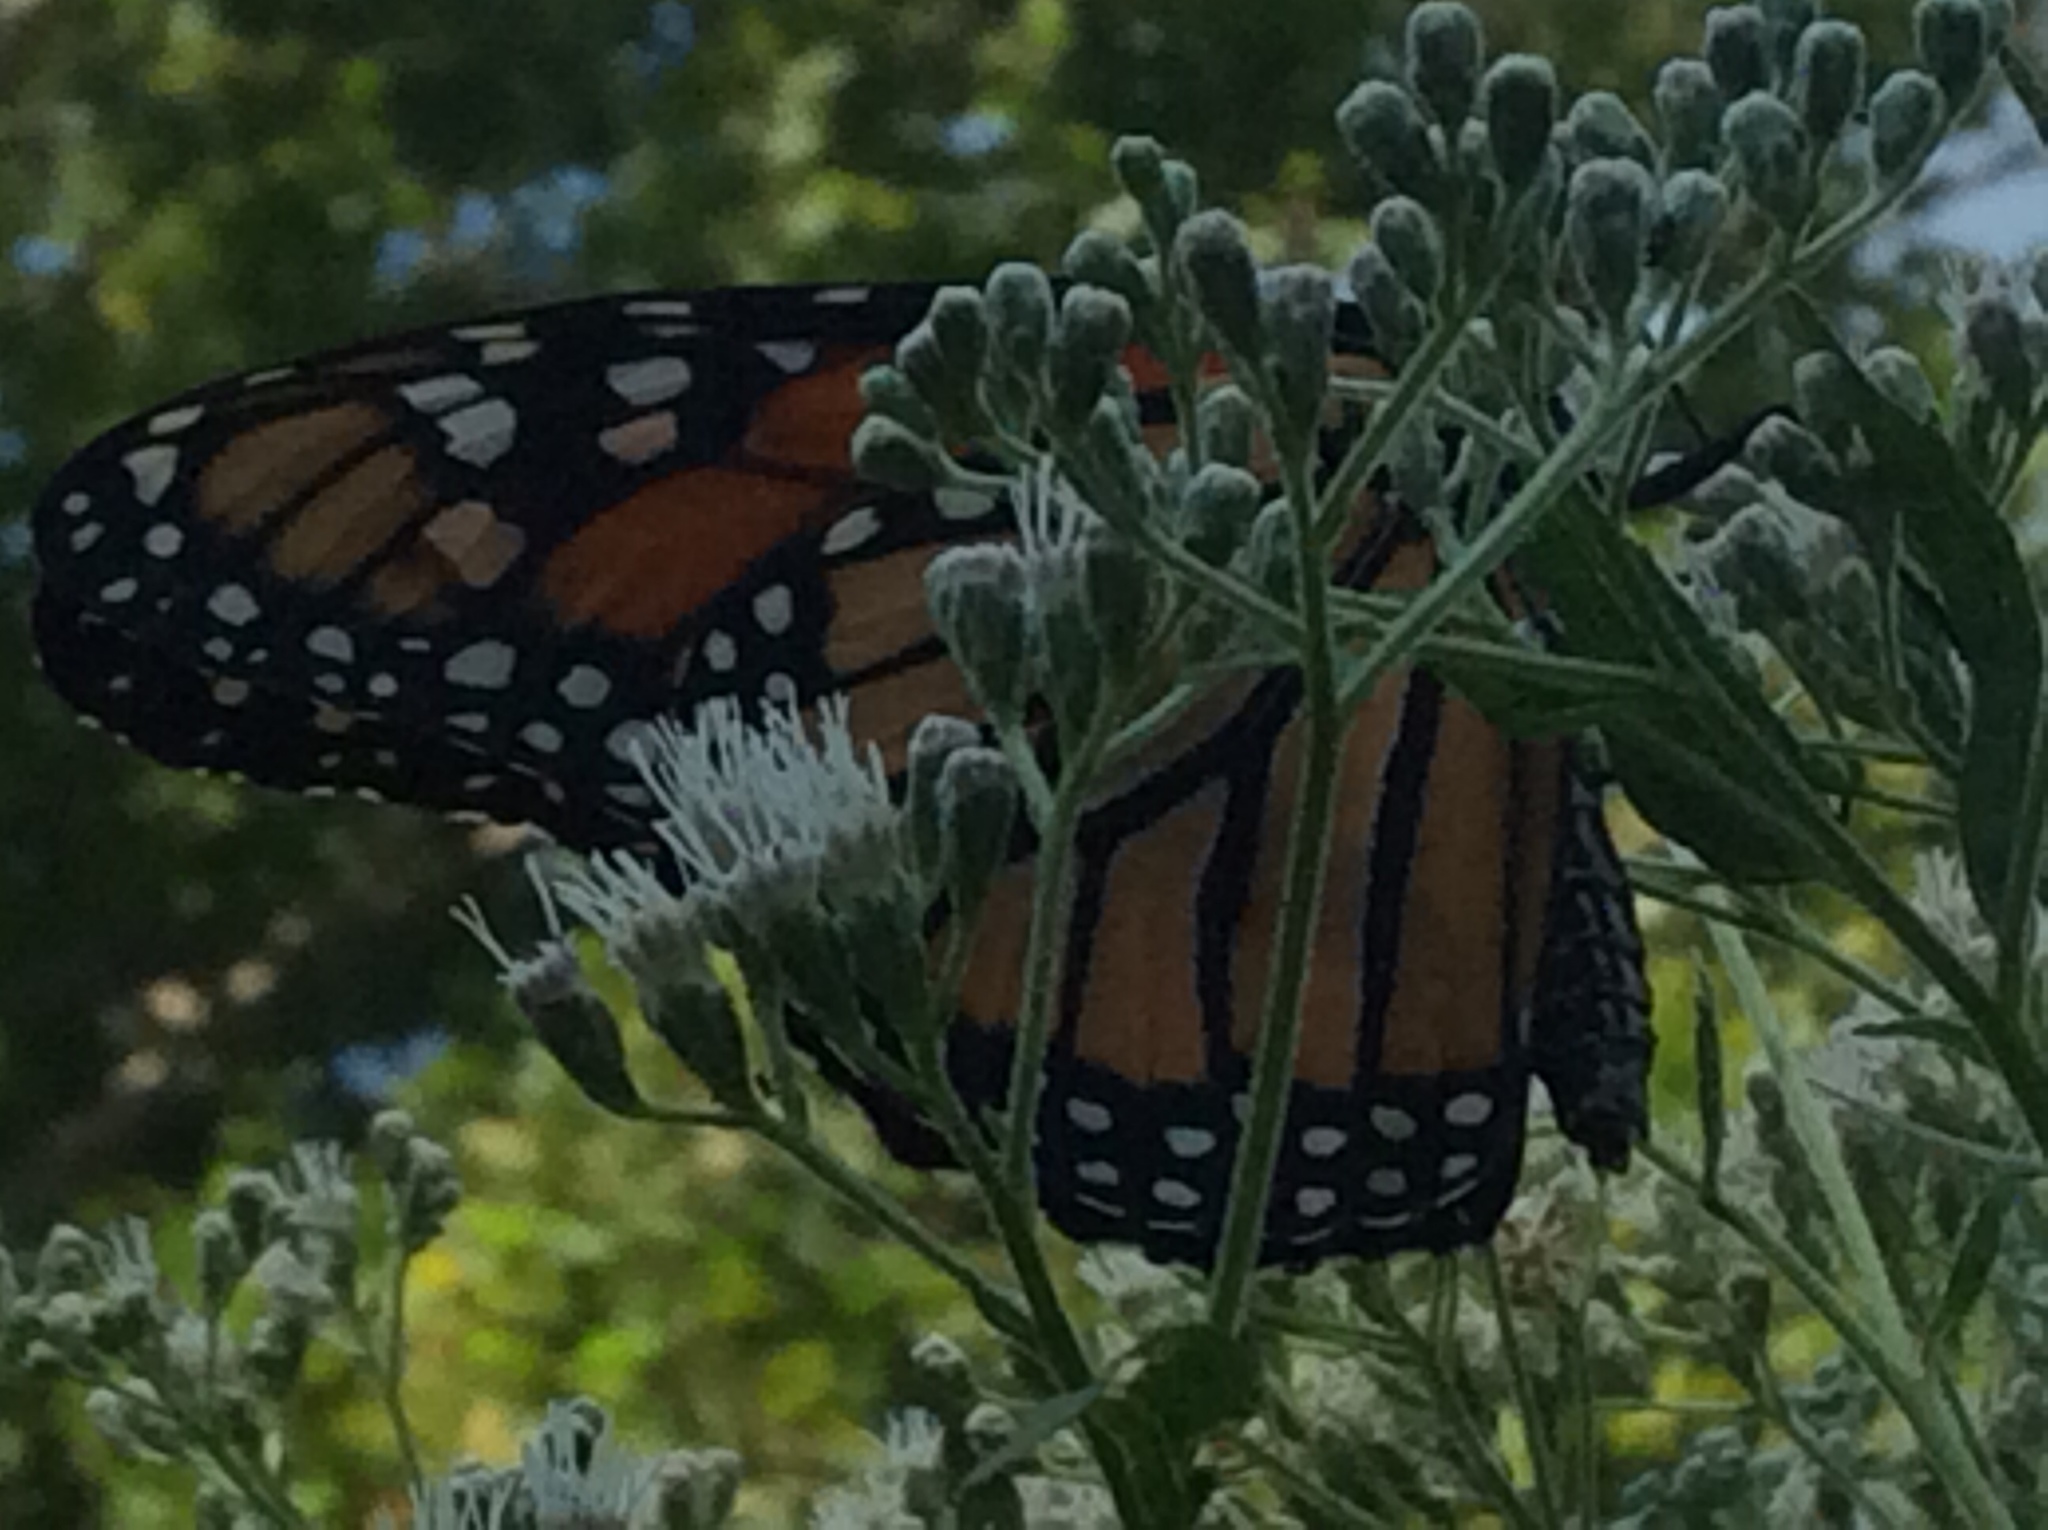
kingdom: Animalia
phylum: Arthropoda
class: Insecta
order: Lepidoptera
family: Nymphalidae
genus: Danaus
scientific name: Danaus plexippus
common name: Monarch
